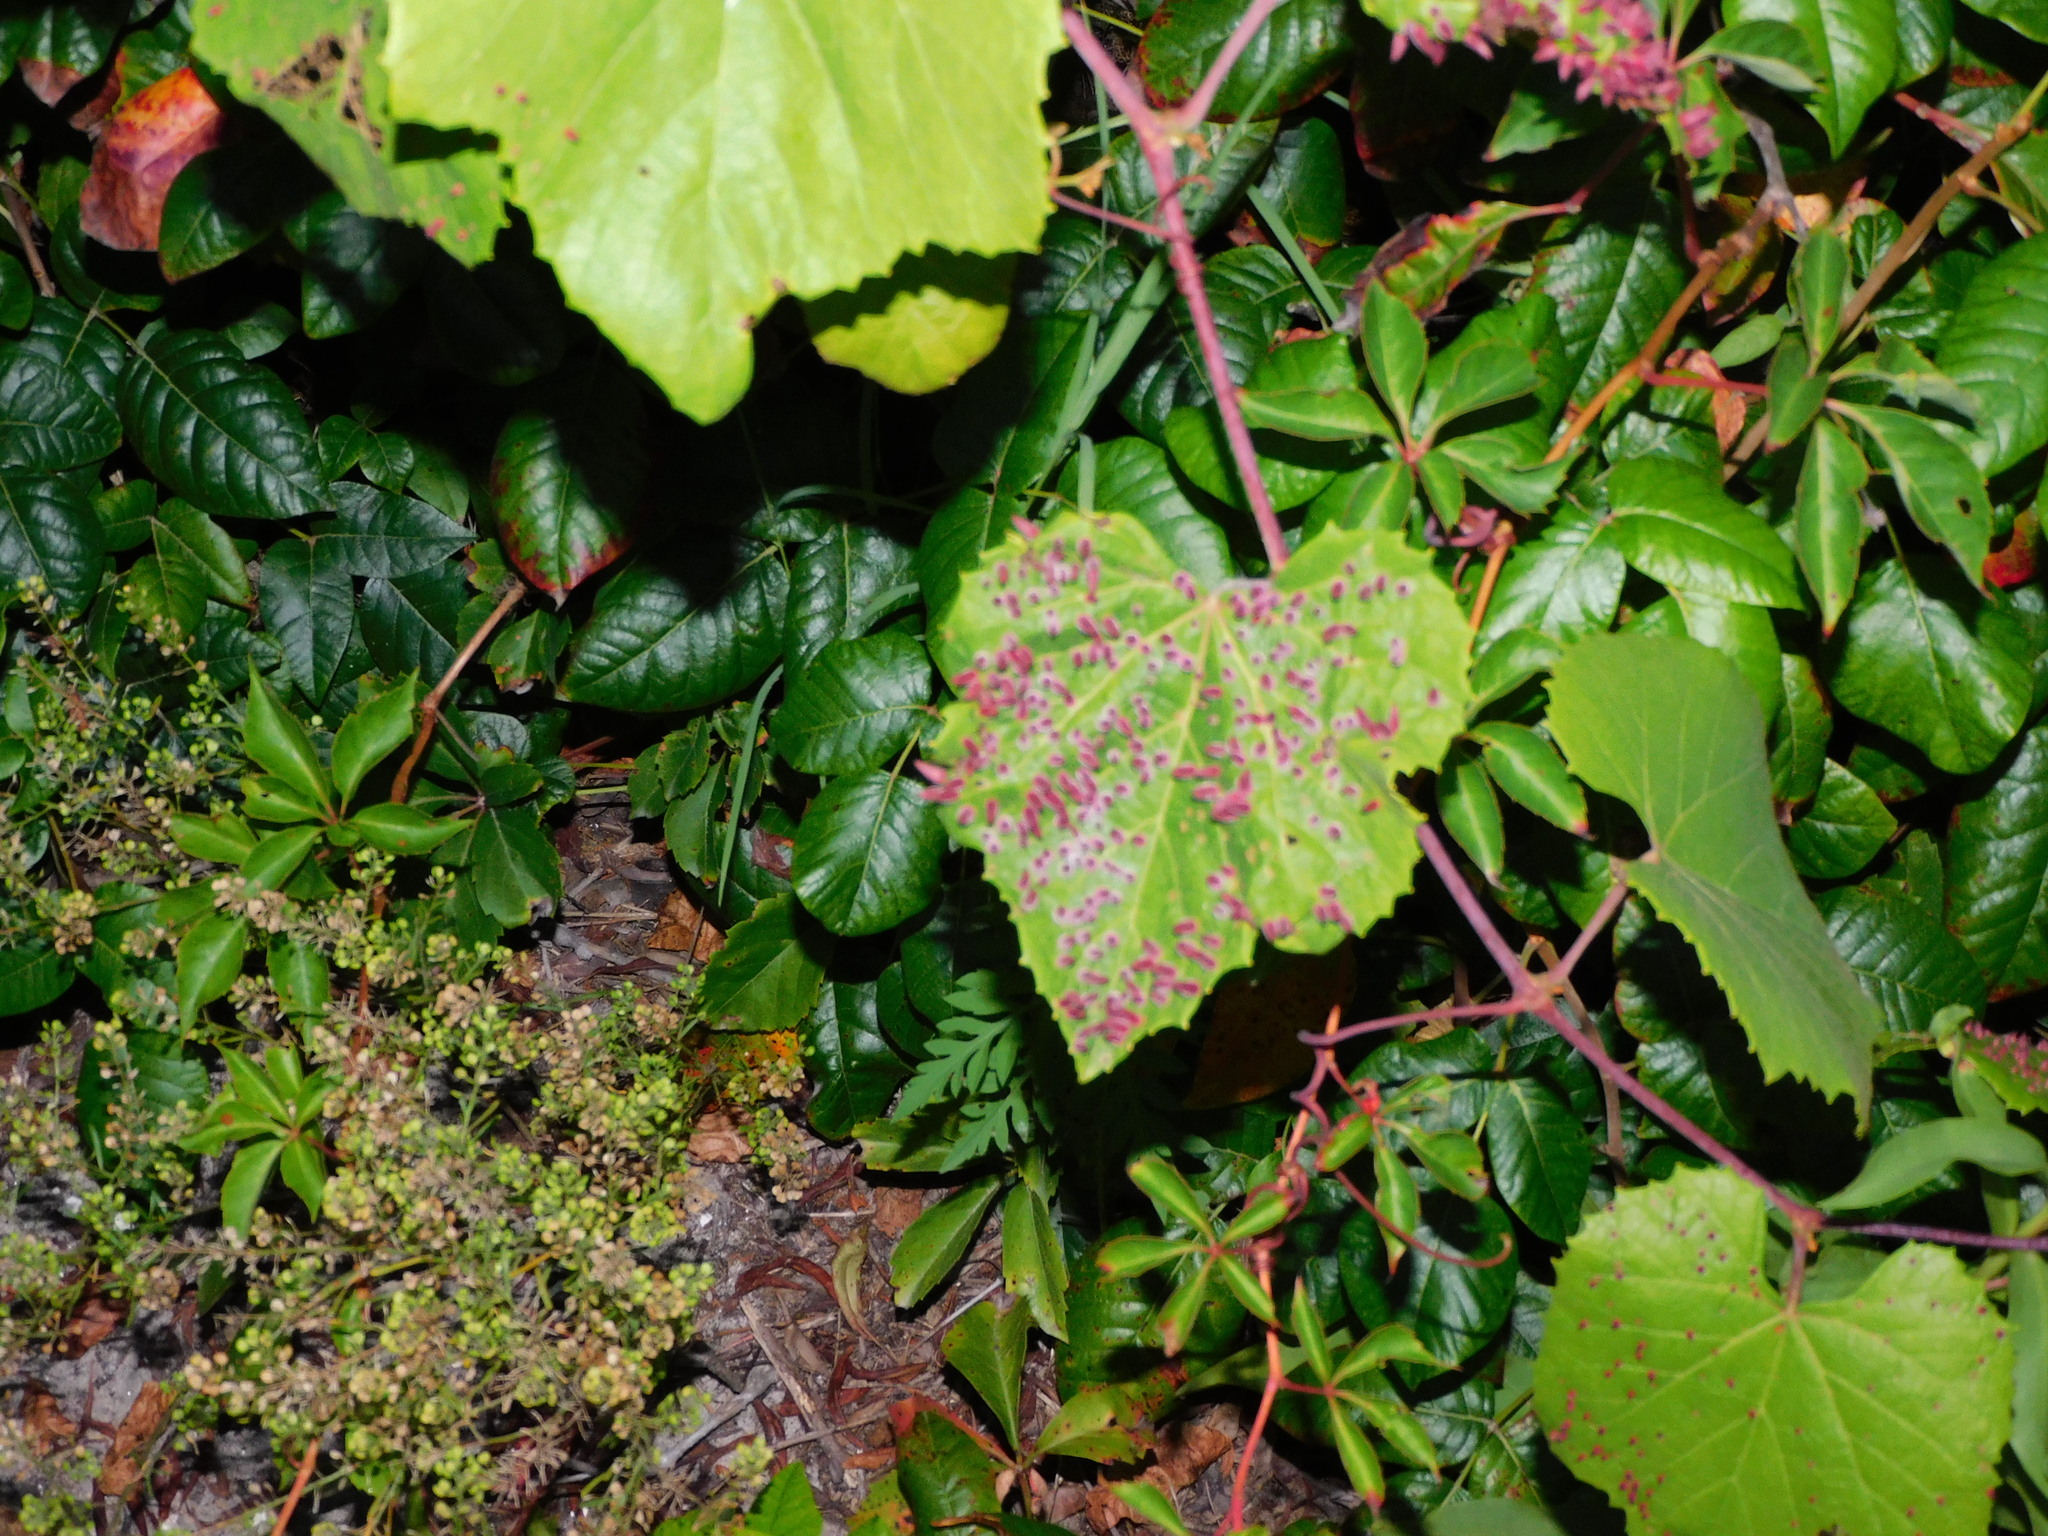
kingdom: Animalia
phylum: Arthropoda
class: Insecta
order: Diptera
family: Cecidomyiidae
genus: Ampelomyia
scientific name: Ampelomyia viticola
